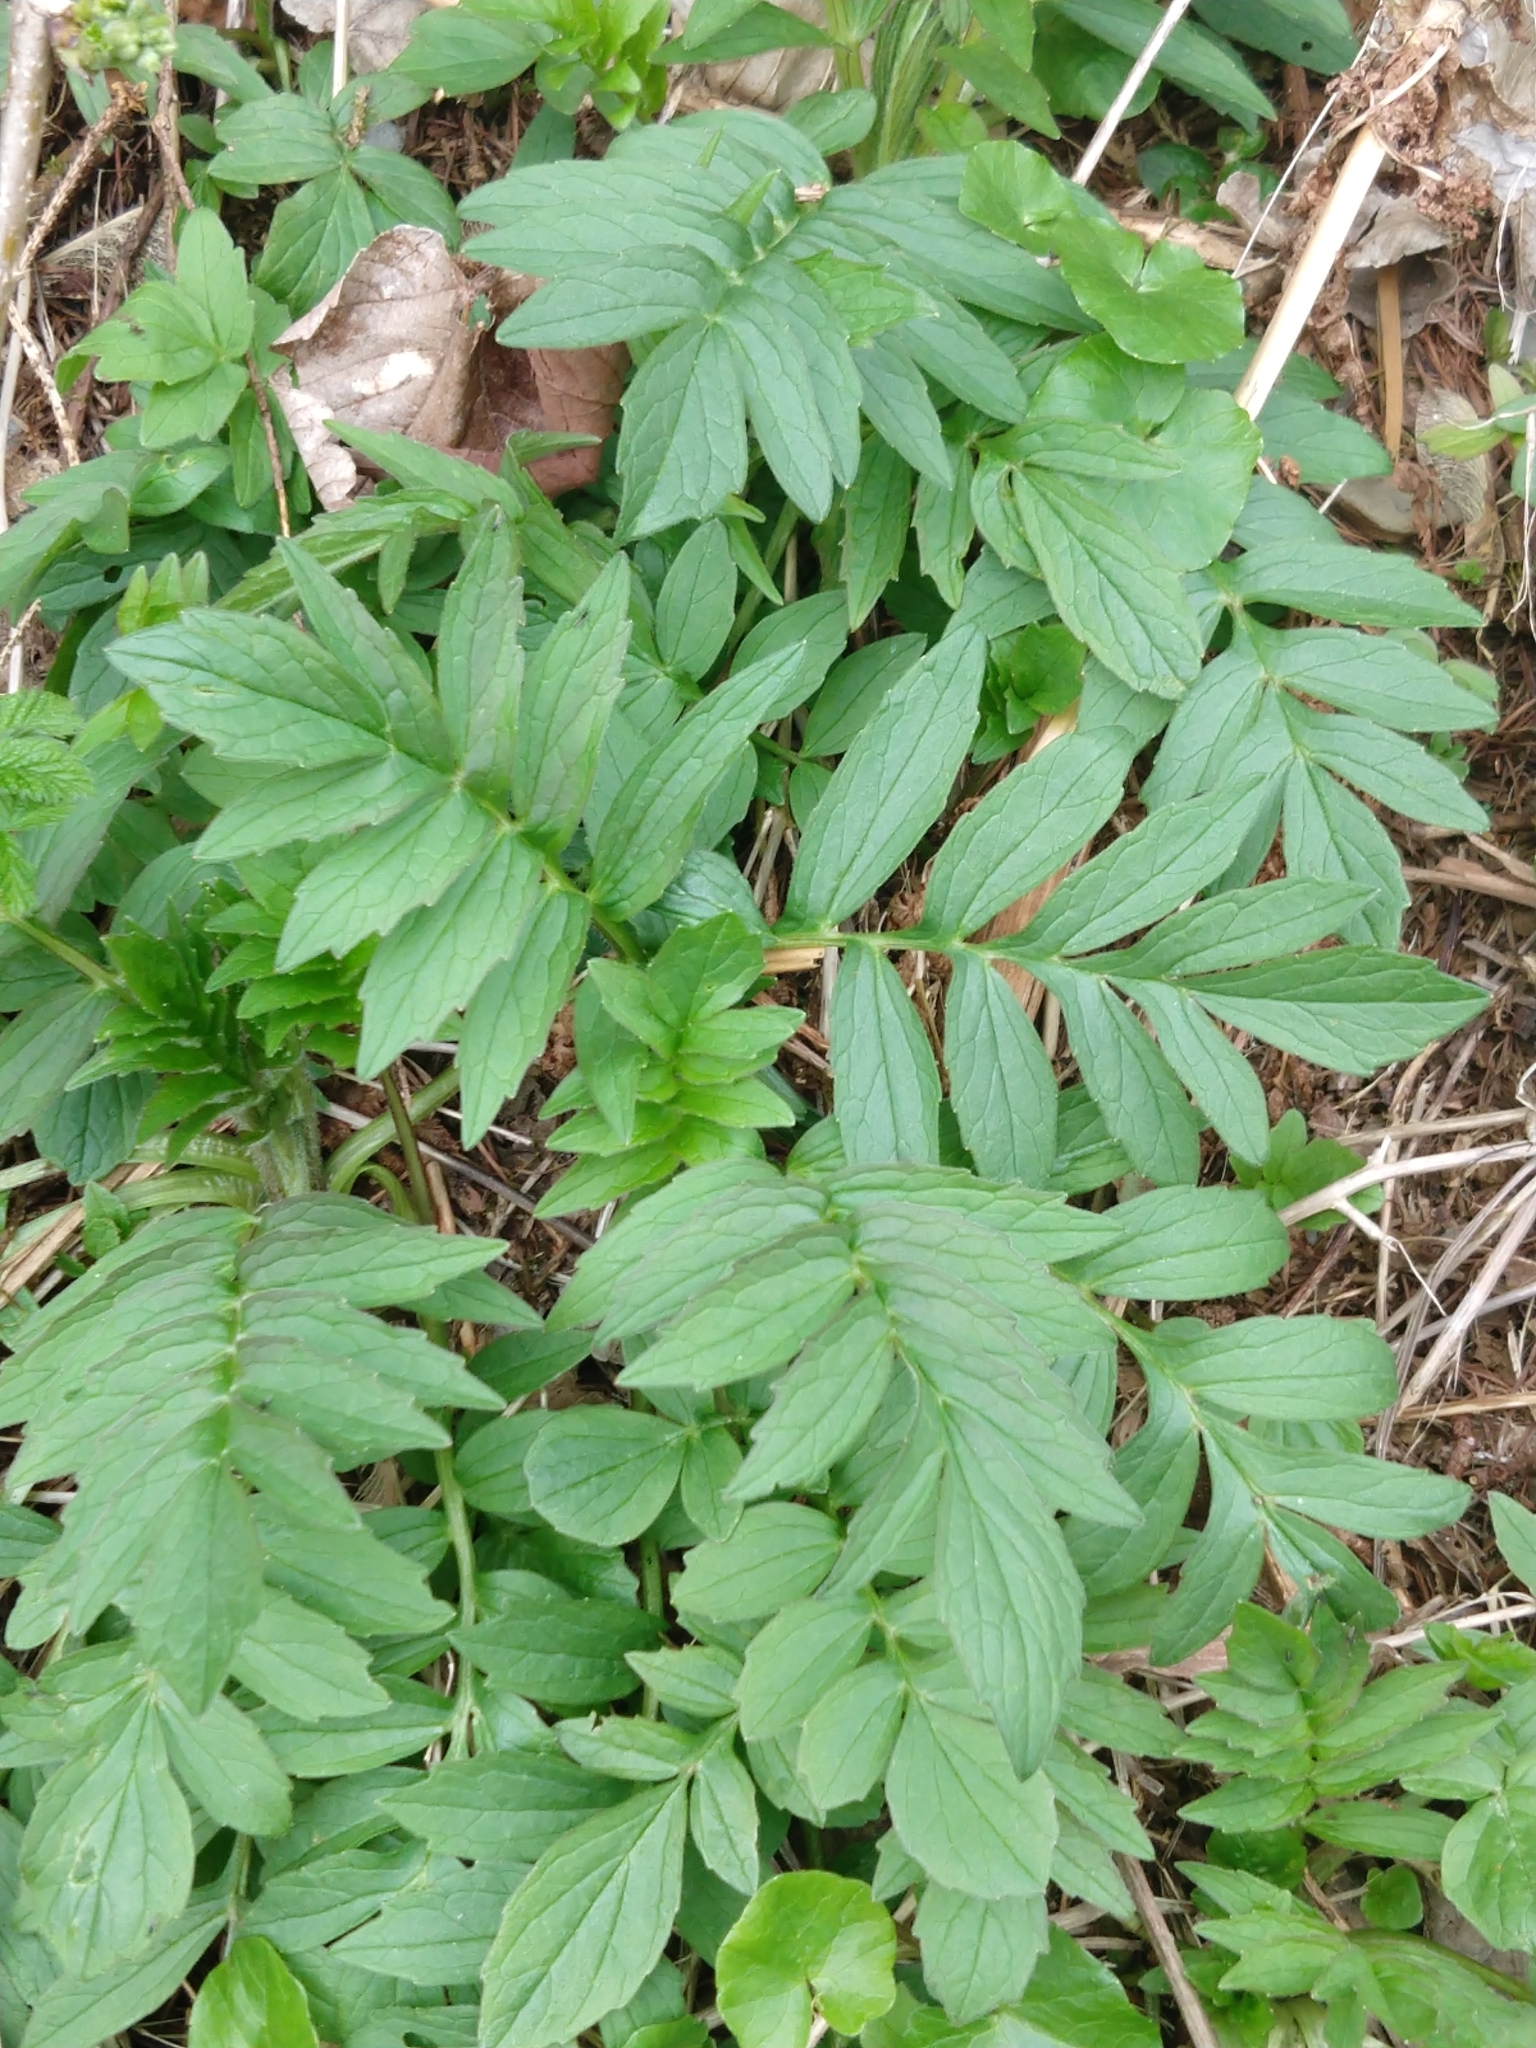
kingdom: Plantae
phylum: Tracheophyta
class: Magnoliopsida
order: Dipsacales
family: Caprifoliaceae
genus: Valeriana
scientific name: Valeriana officinalis
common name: Common valerian
